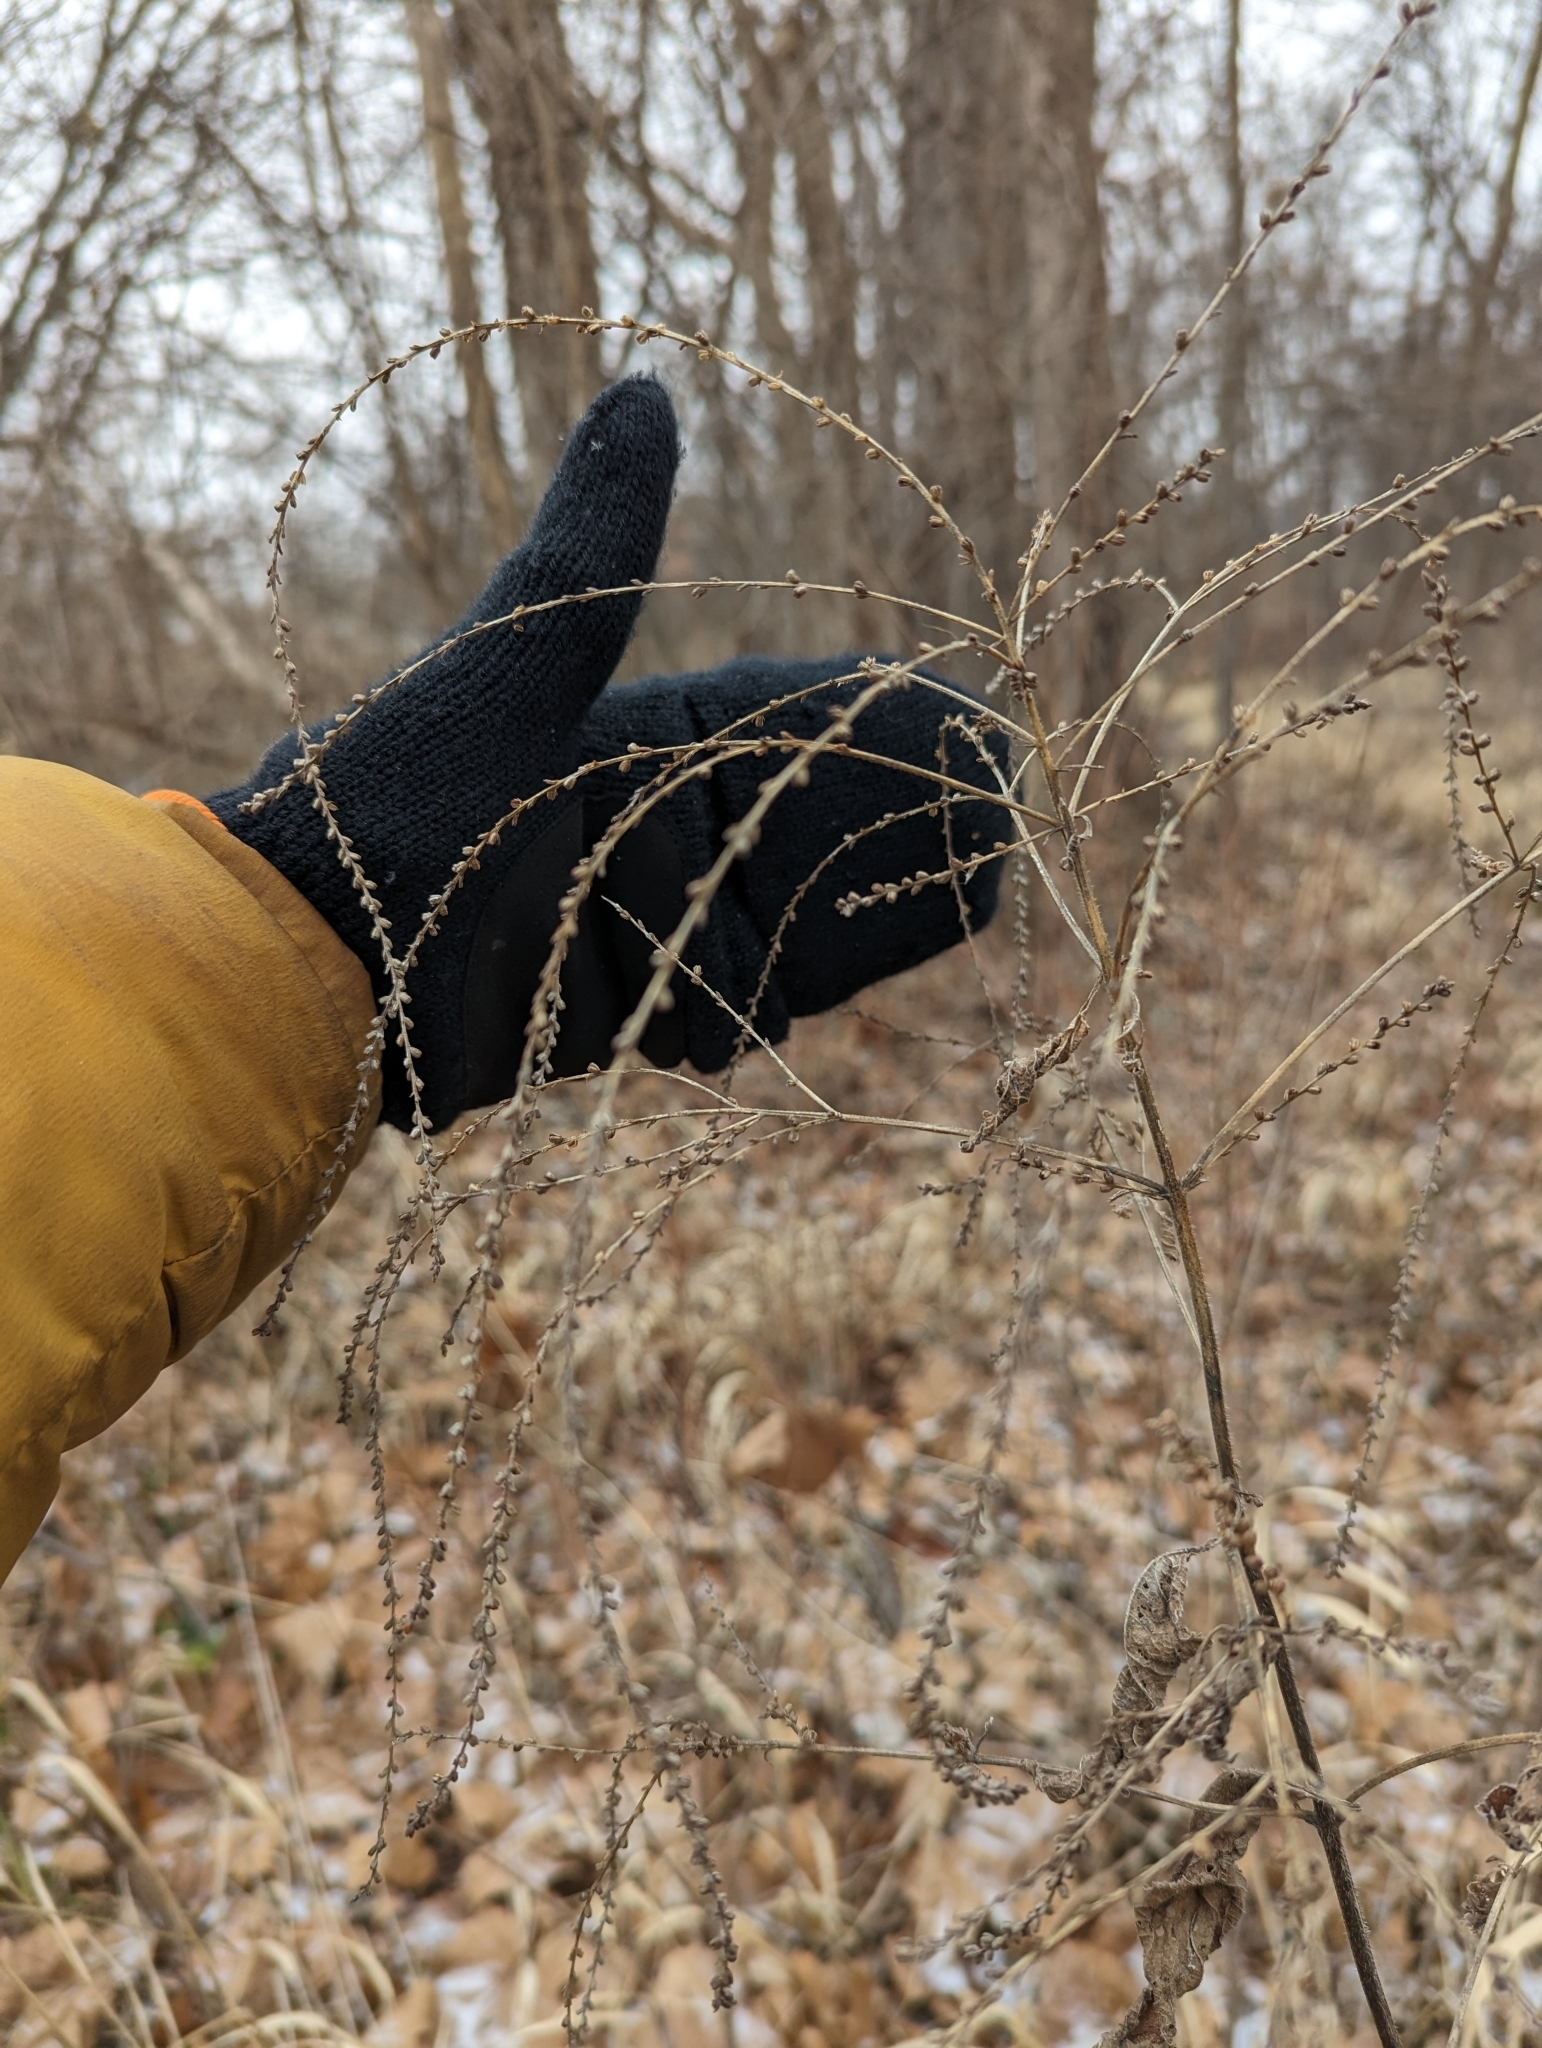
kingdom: Plantae
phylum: Tracheophyta
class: Magnoliopsida
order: Lamiales
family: Verbenaceae
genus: Verbena
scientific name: Verbena urticifolia
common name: Nettle-leaved vervain
